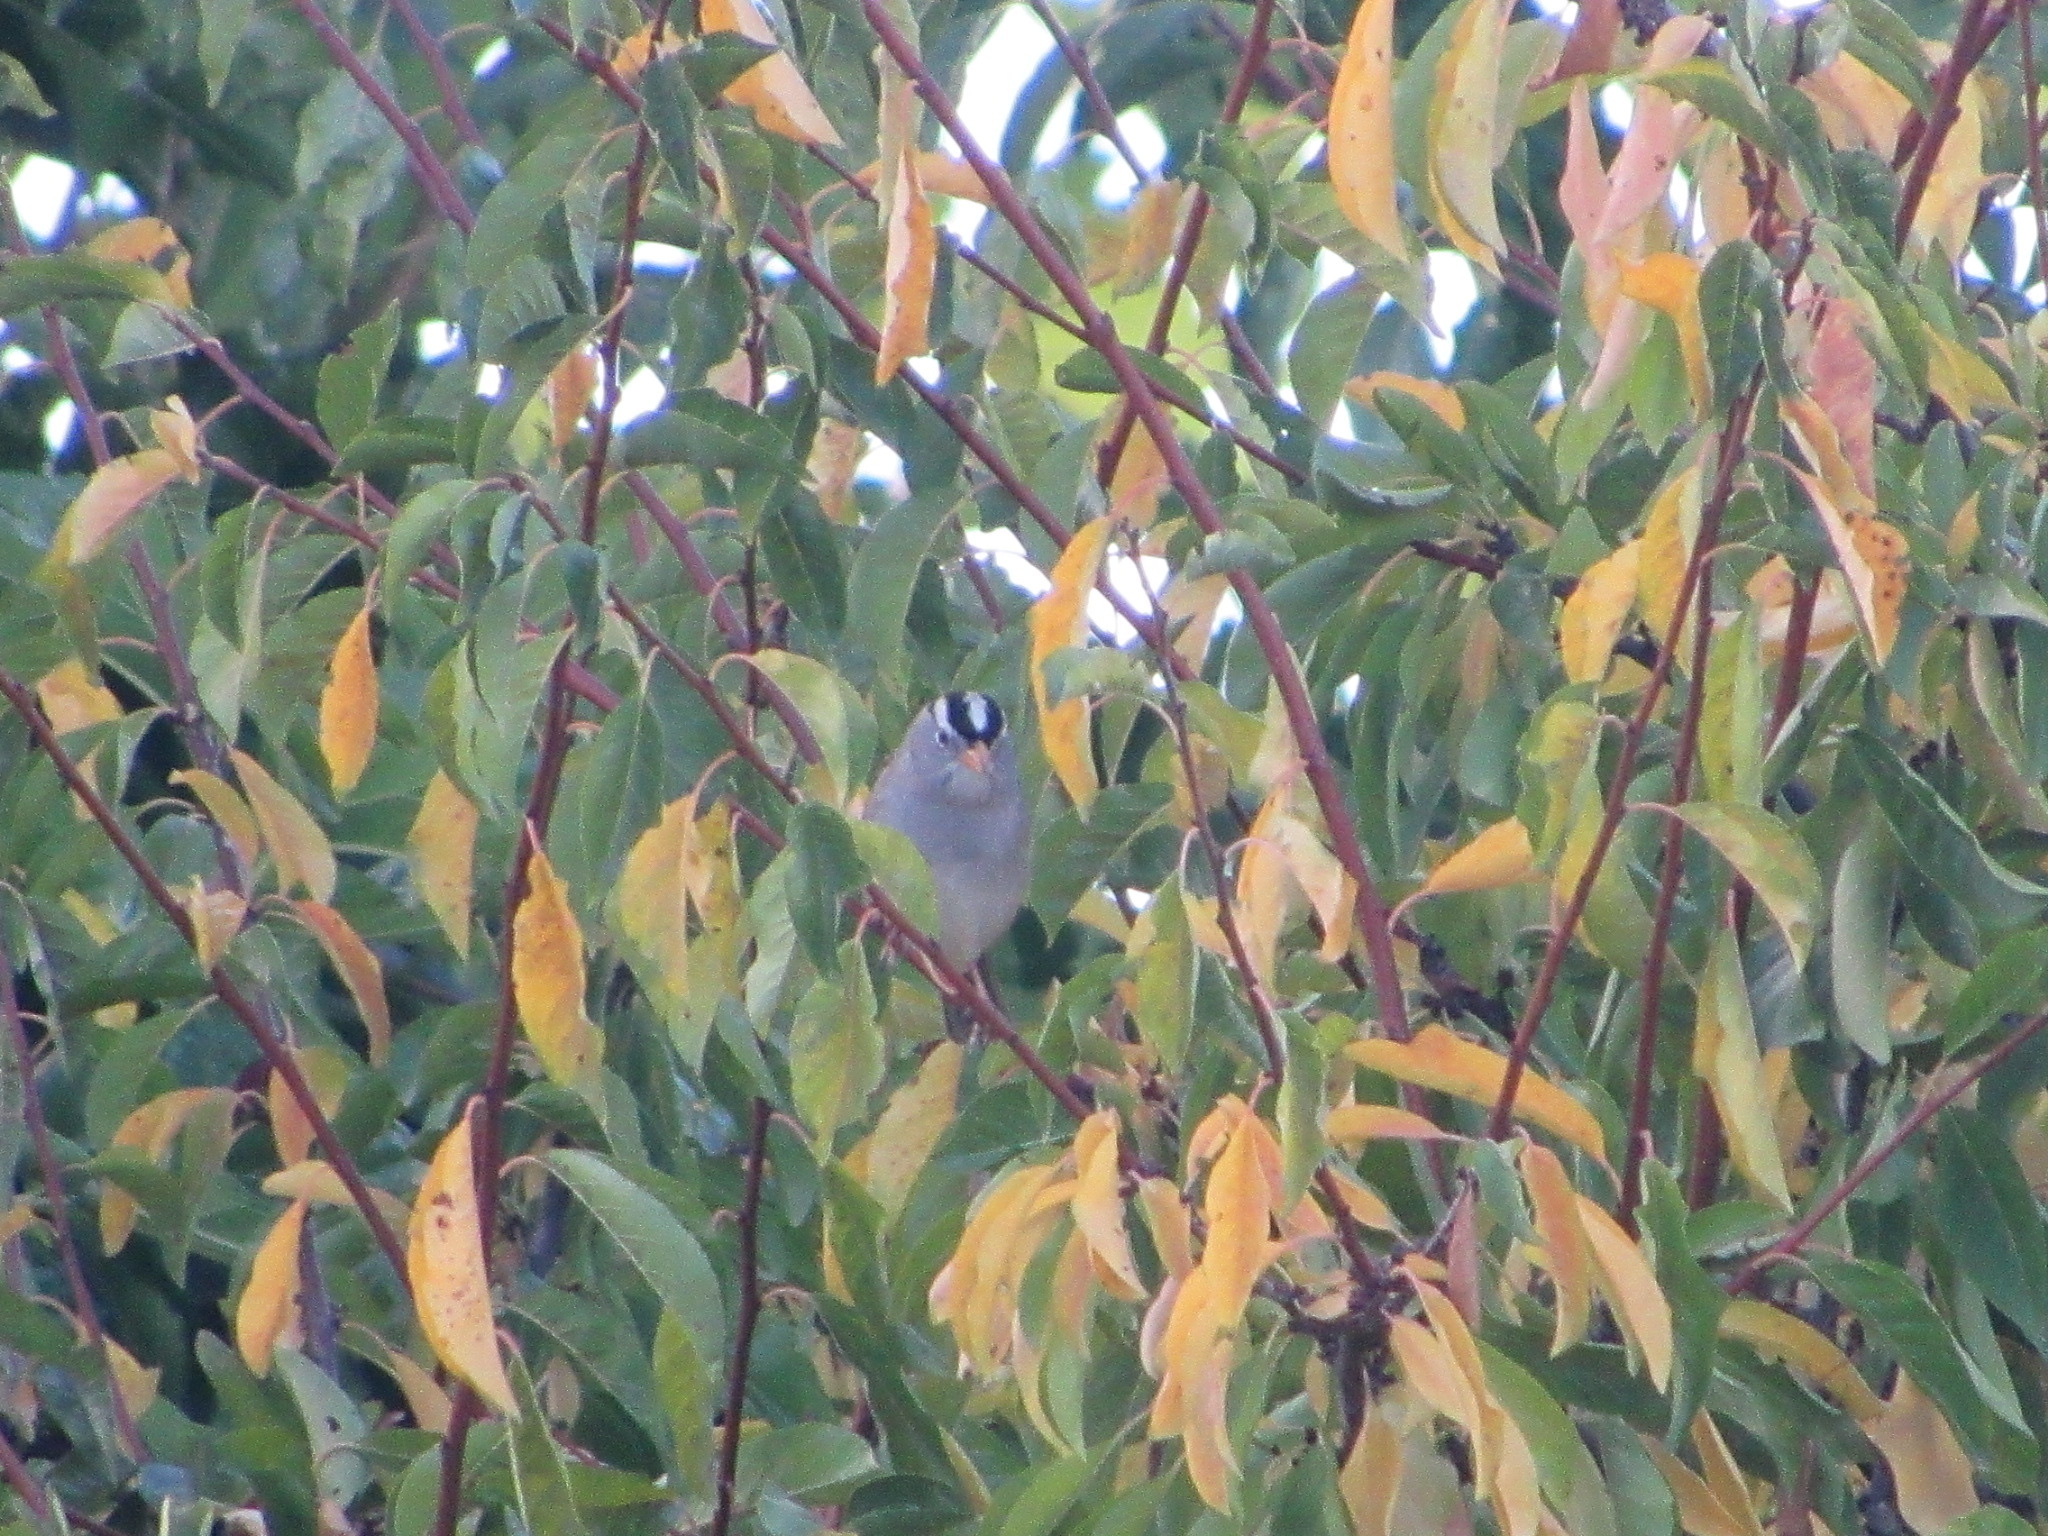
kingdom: Animalia
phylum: Chordata
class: Aves
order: Passeriformes
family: Passerellidae
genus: Zonotrichia
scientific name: Zonotrichia leucophrys
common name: White-crowned sparrow
